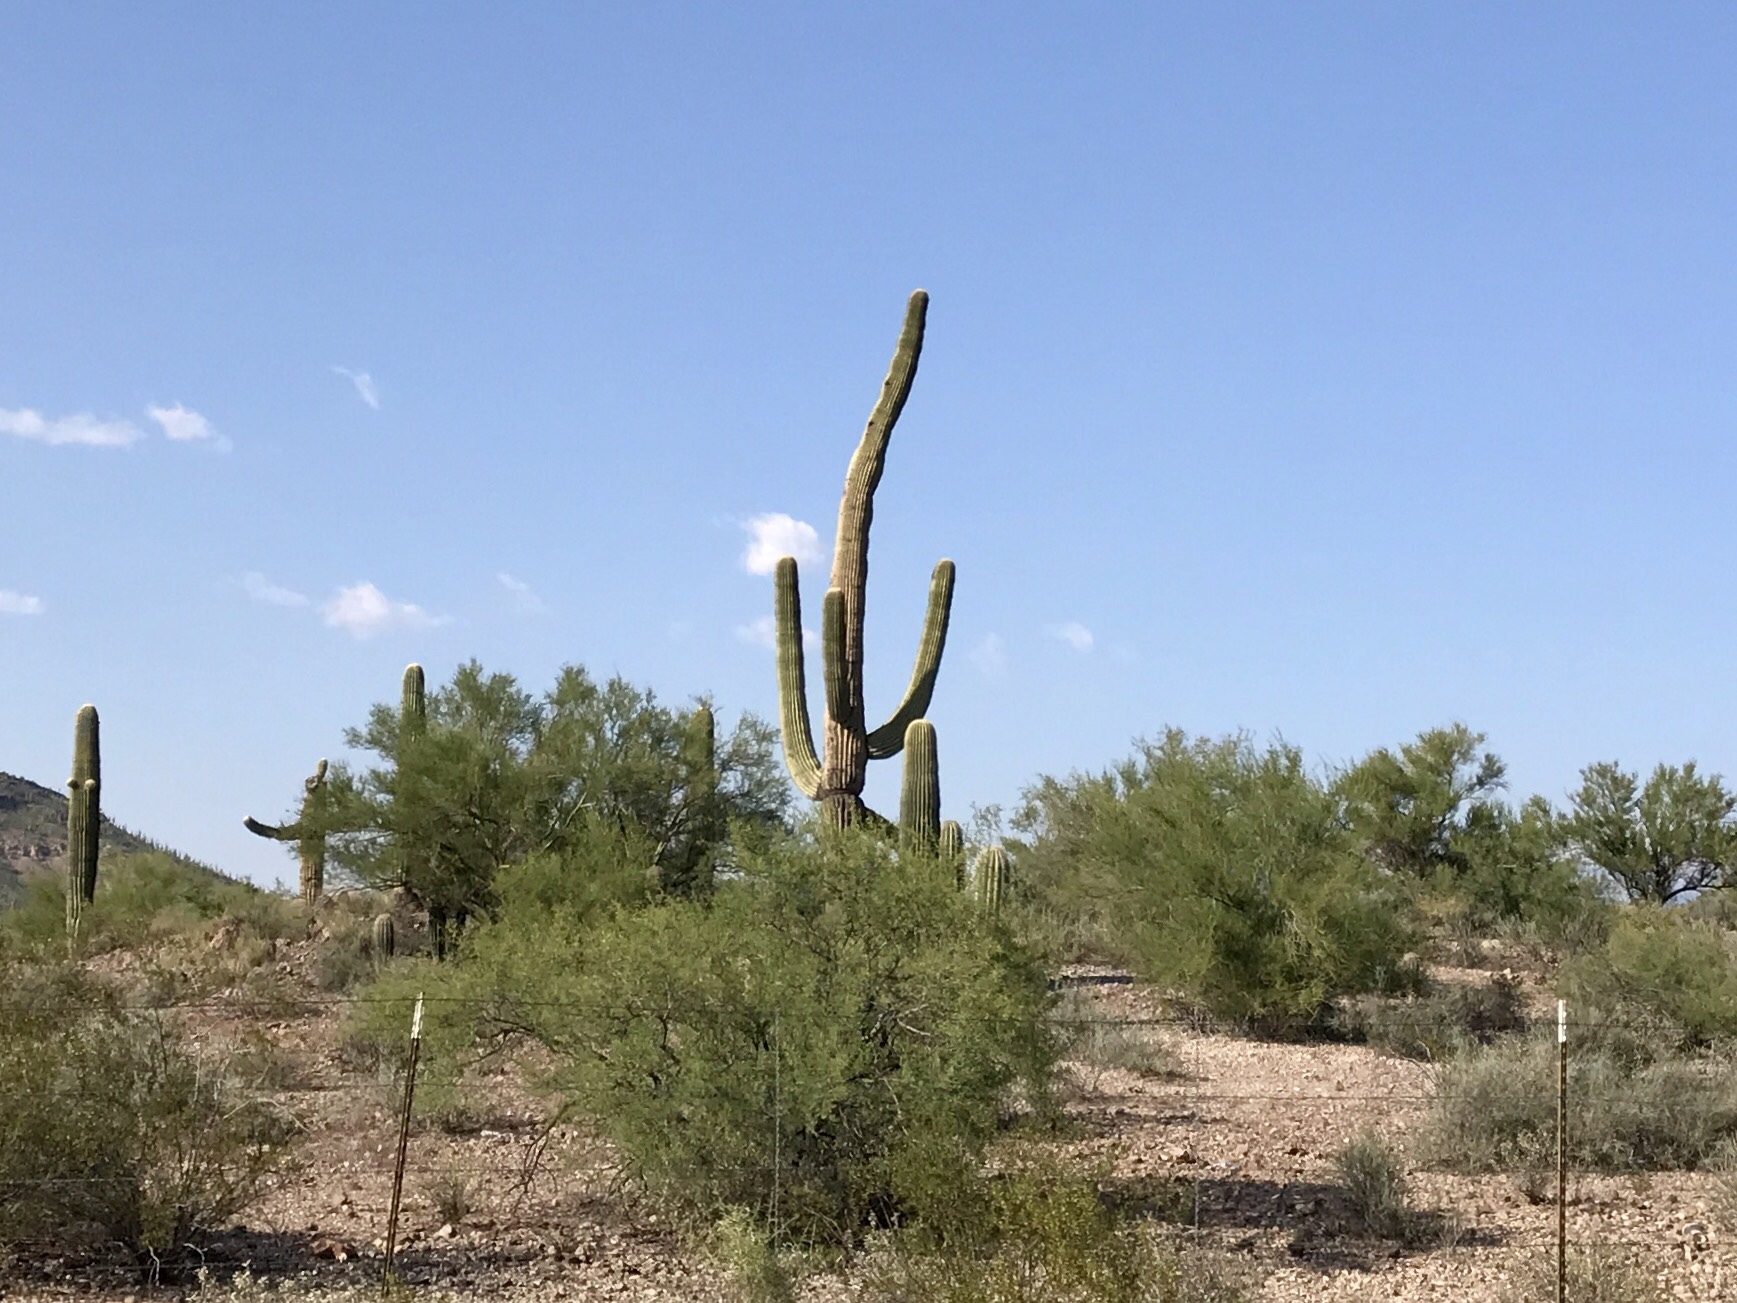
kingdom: Plantae
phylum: Tracheophyta
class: Magnoliopsida
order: Caryophyllales
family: Cactaceae
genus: Carnegiea
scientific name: Carnegiea gigantea
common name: Saguaro
